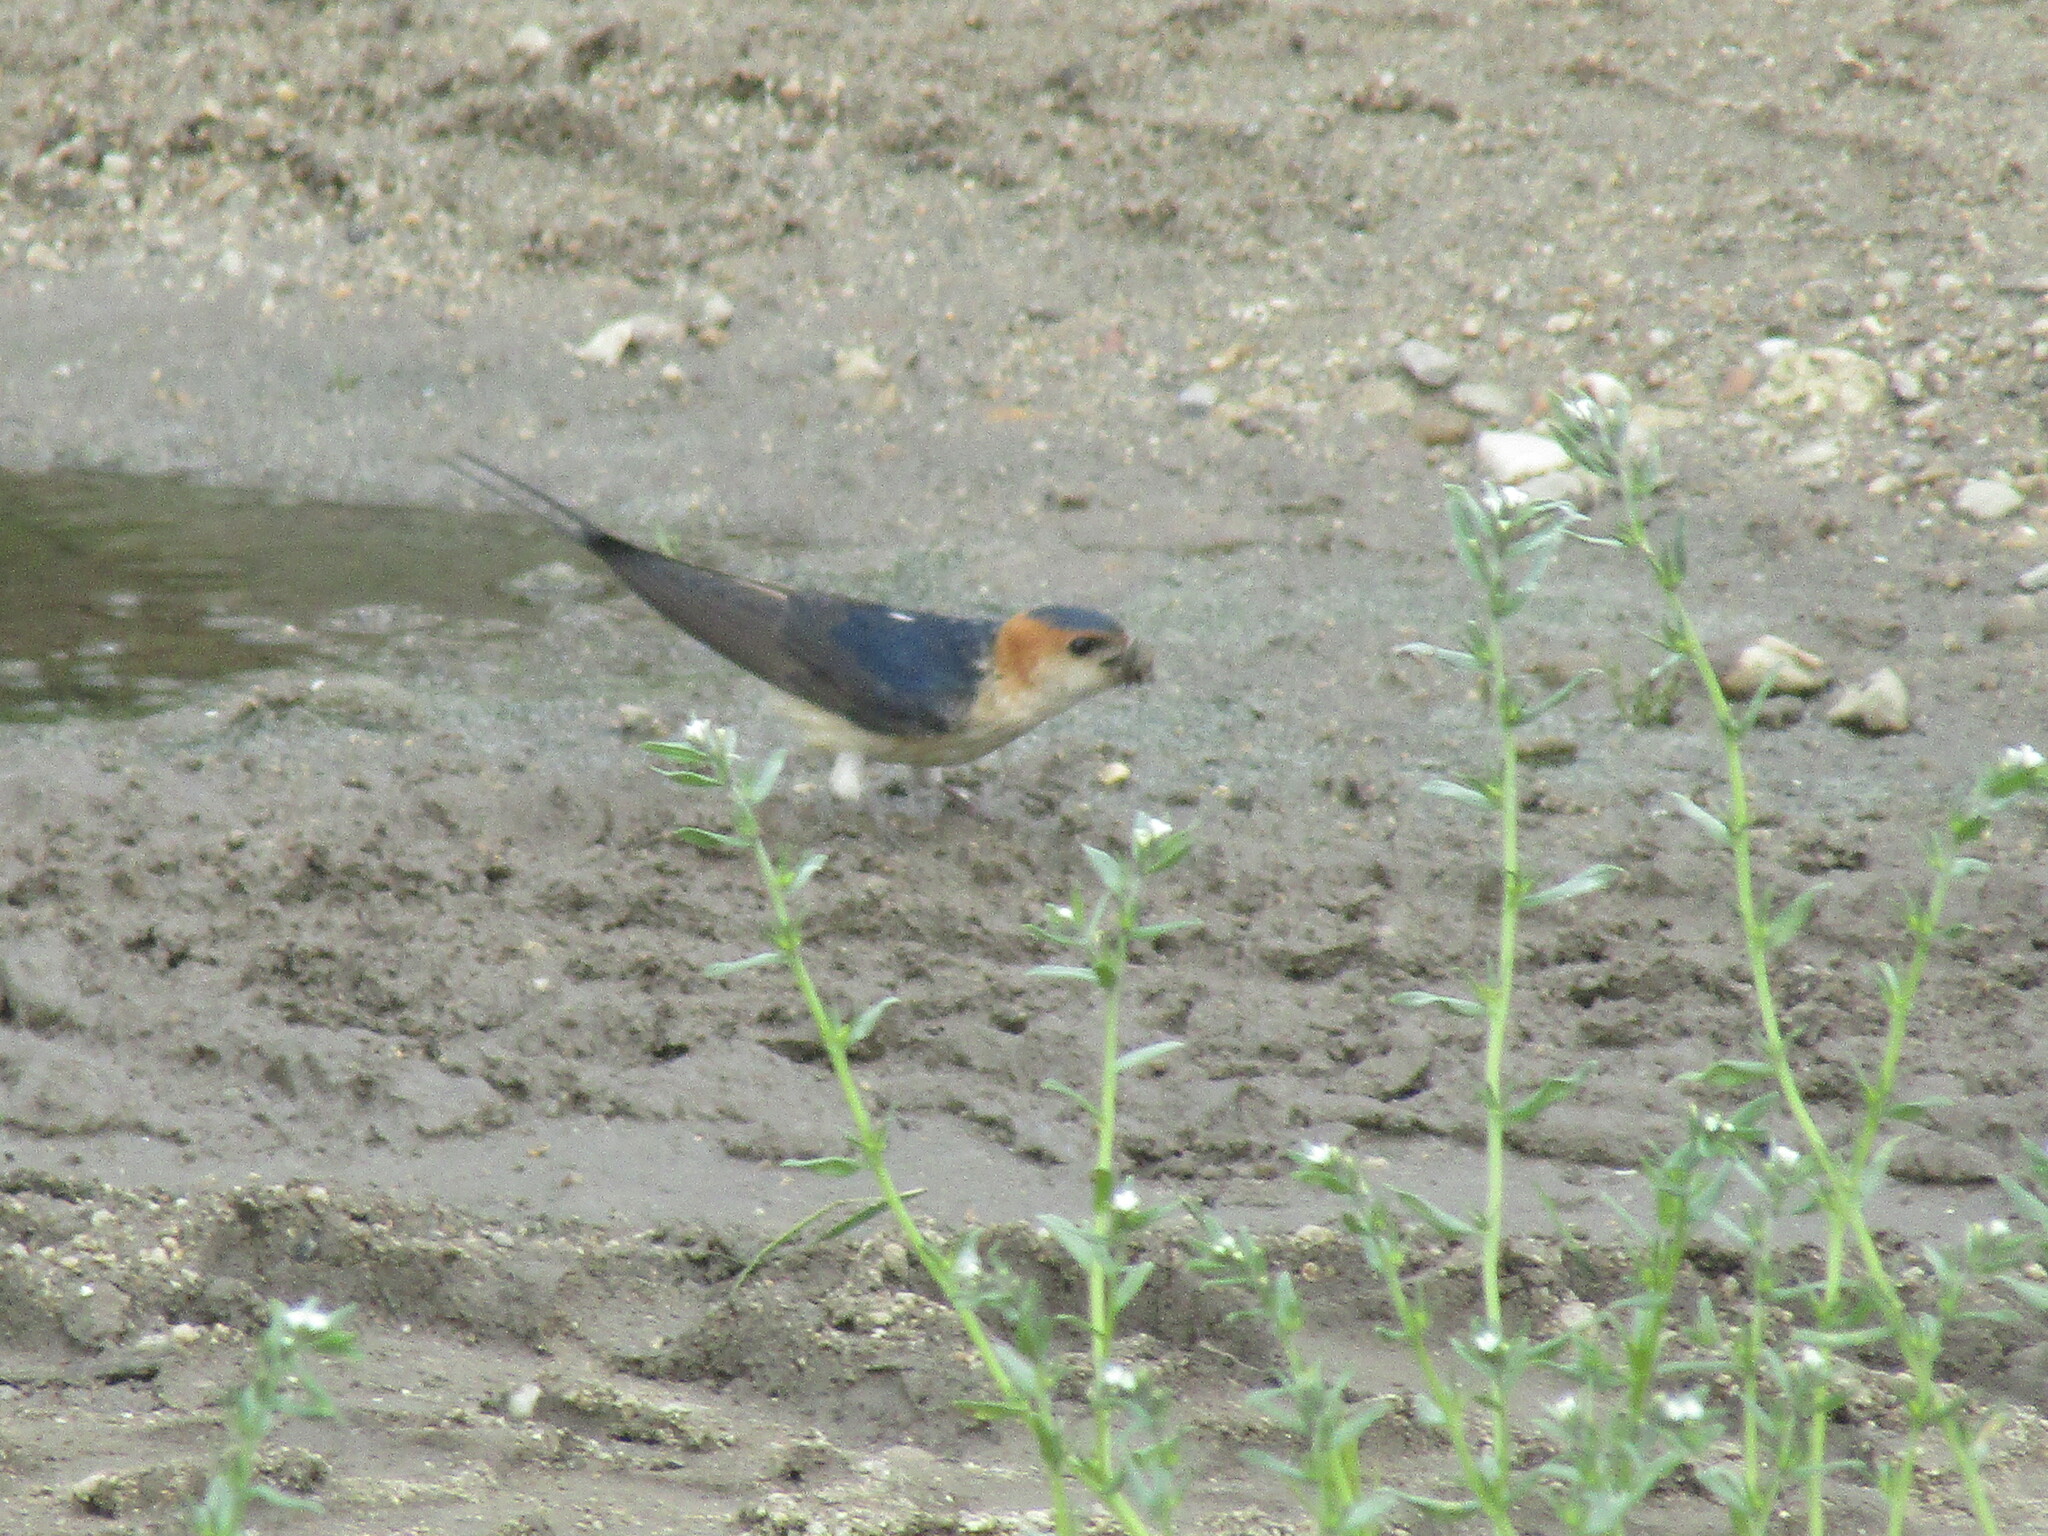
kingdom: Animalia
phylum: Chordata
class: Aves
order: Passeriformes
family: Hirundinidae
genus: Cecropis
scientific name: Cecropis daurica
